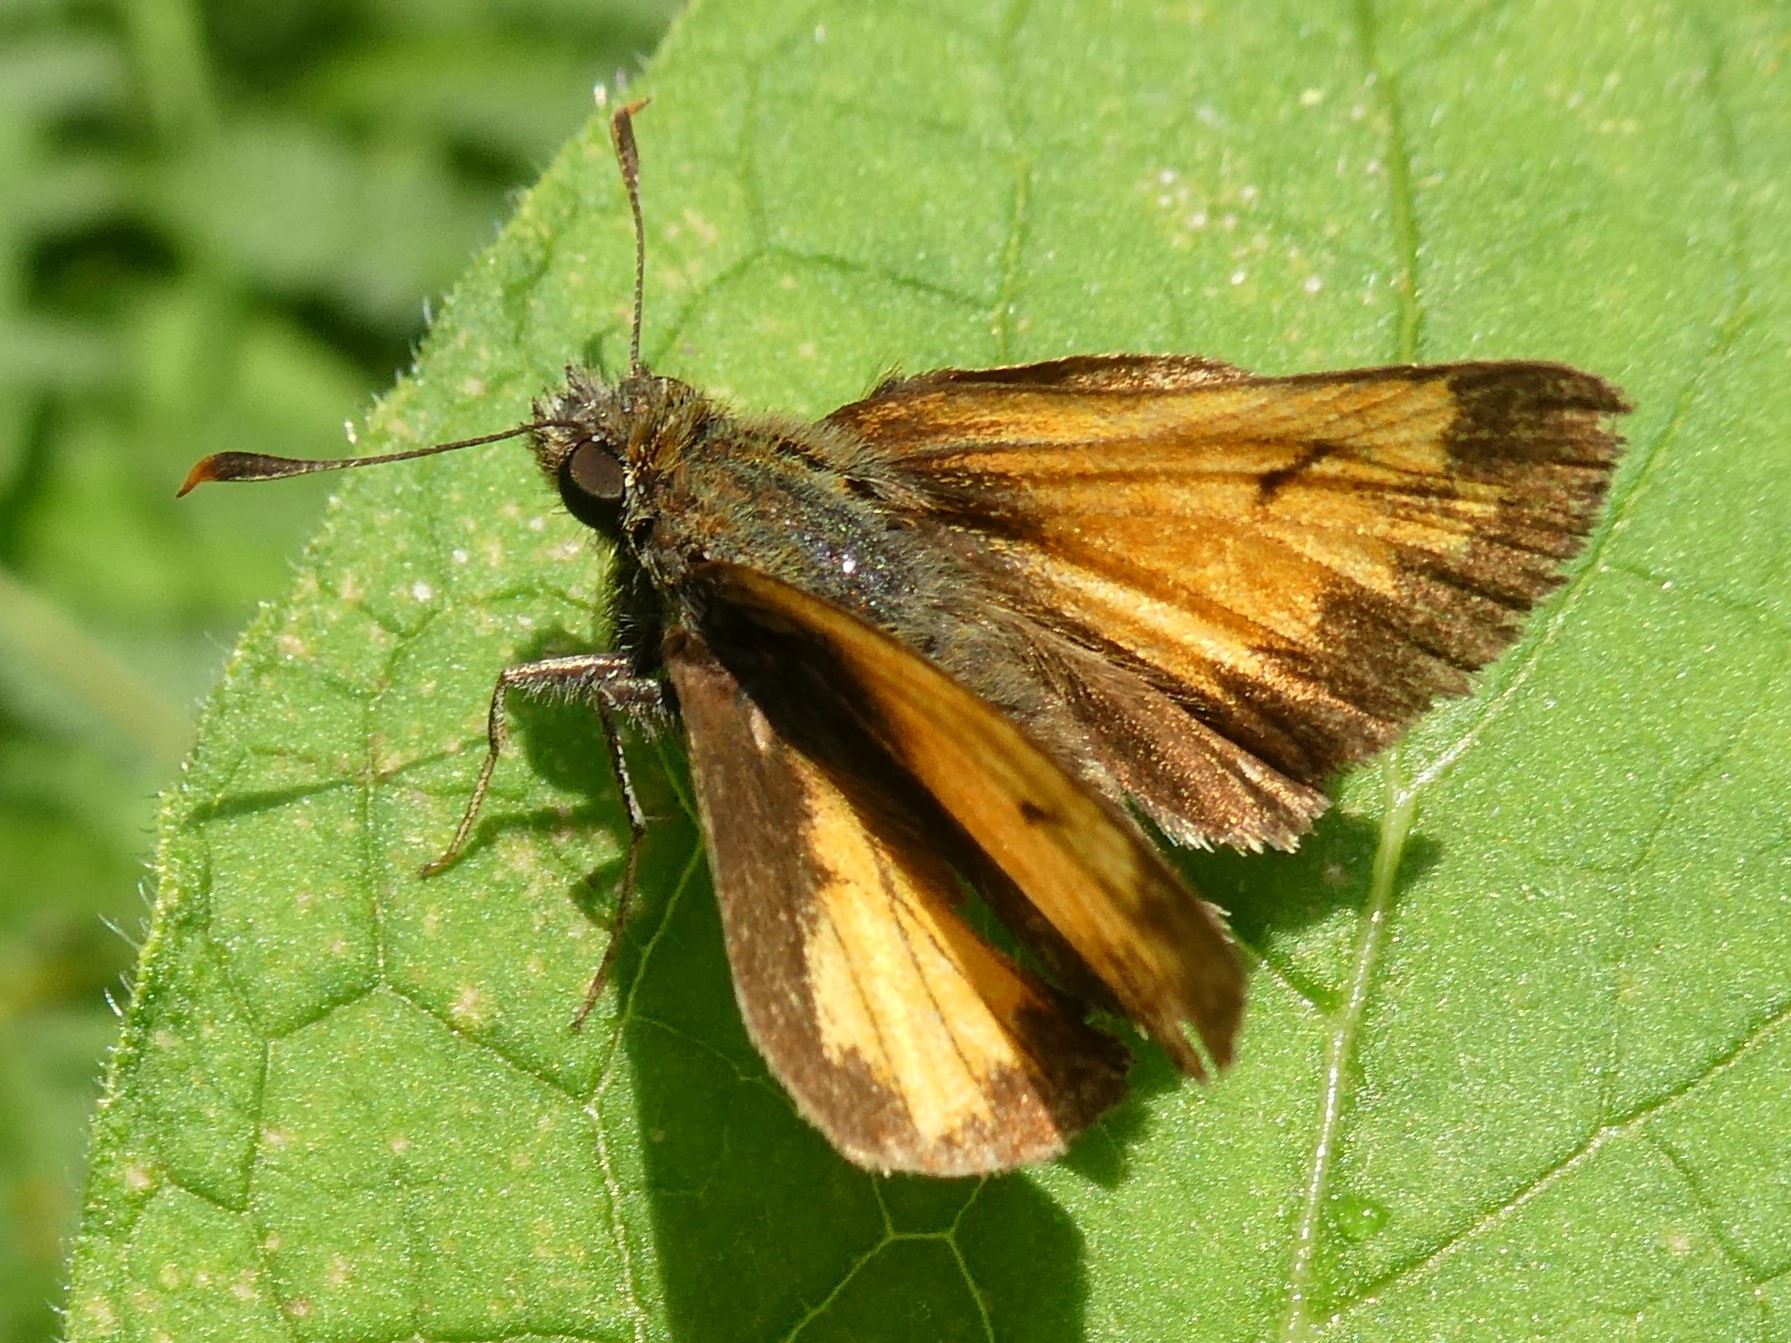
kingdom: Animalia
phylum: Arthropoda
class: Insecta
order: Lepidoptera
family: Hesperiidae
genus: Lon
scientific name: Lon hobomok
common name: Hobomok skipper
